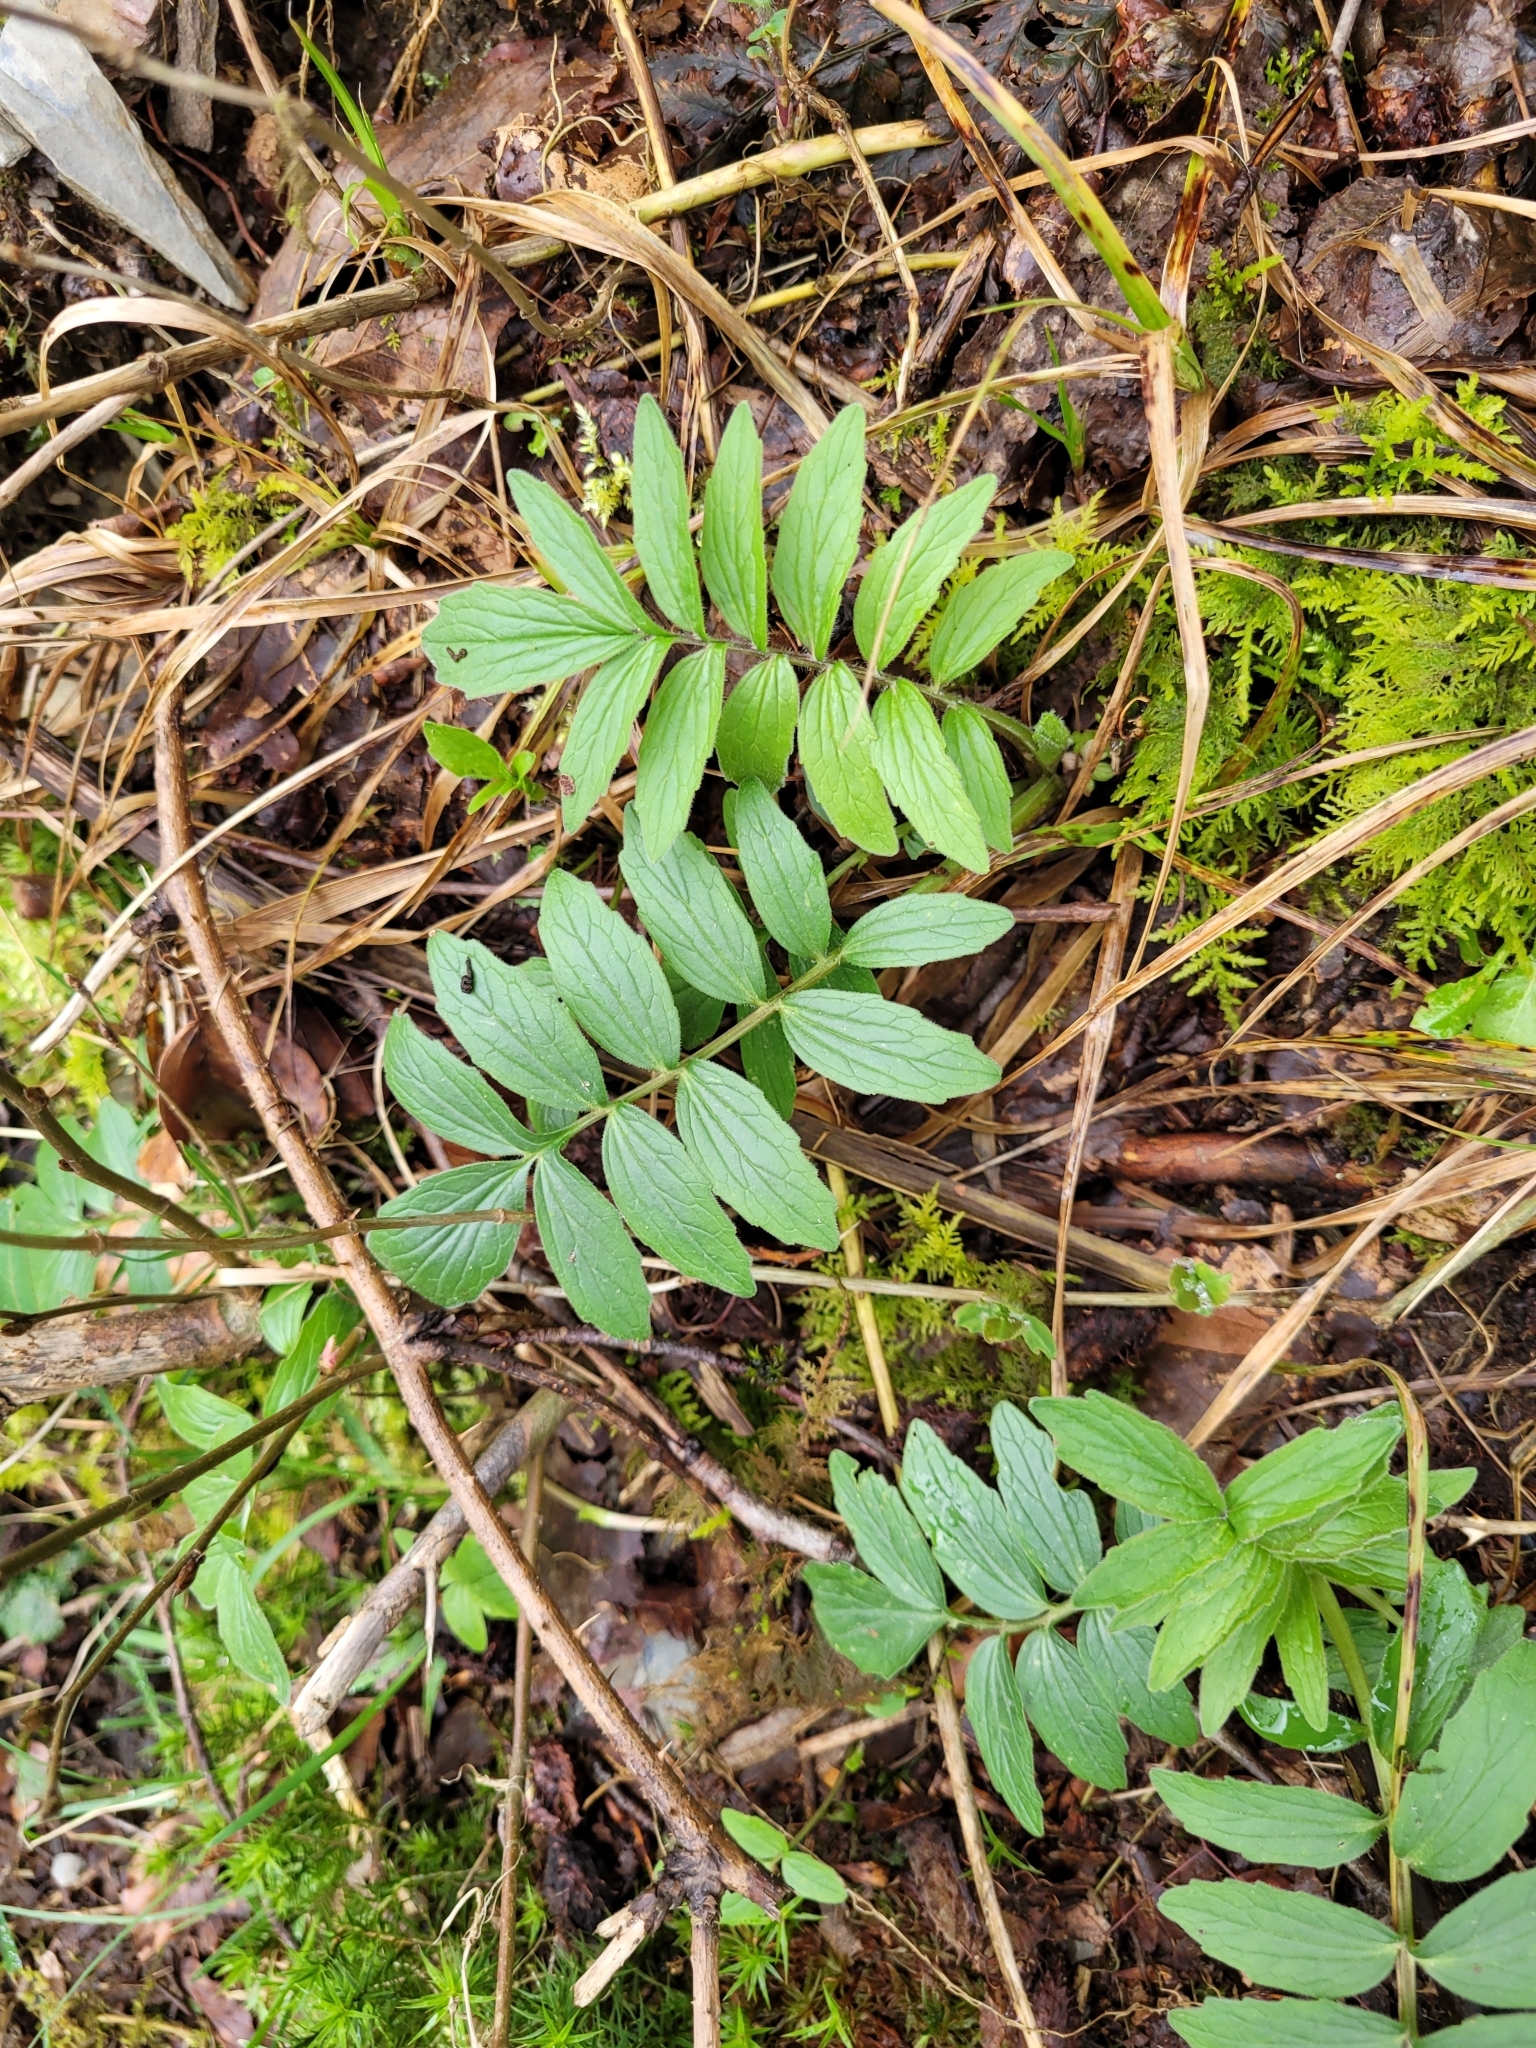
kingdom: Plantae
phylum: Tracheophyta
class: Magnoliopsida
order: Dipsacales
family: Caprifoliaceae
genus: Valeriana
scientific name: Valeriana officinalis
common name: Common valerian
